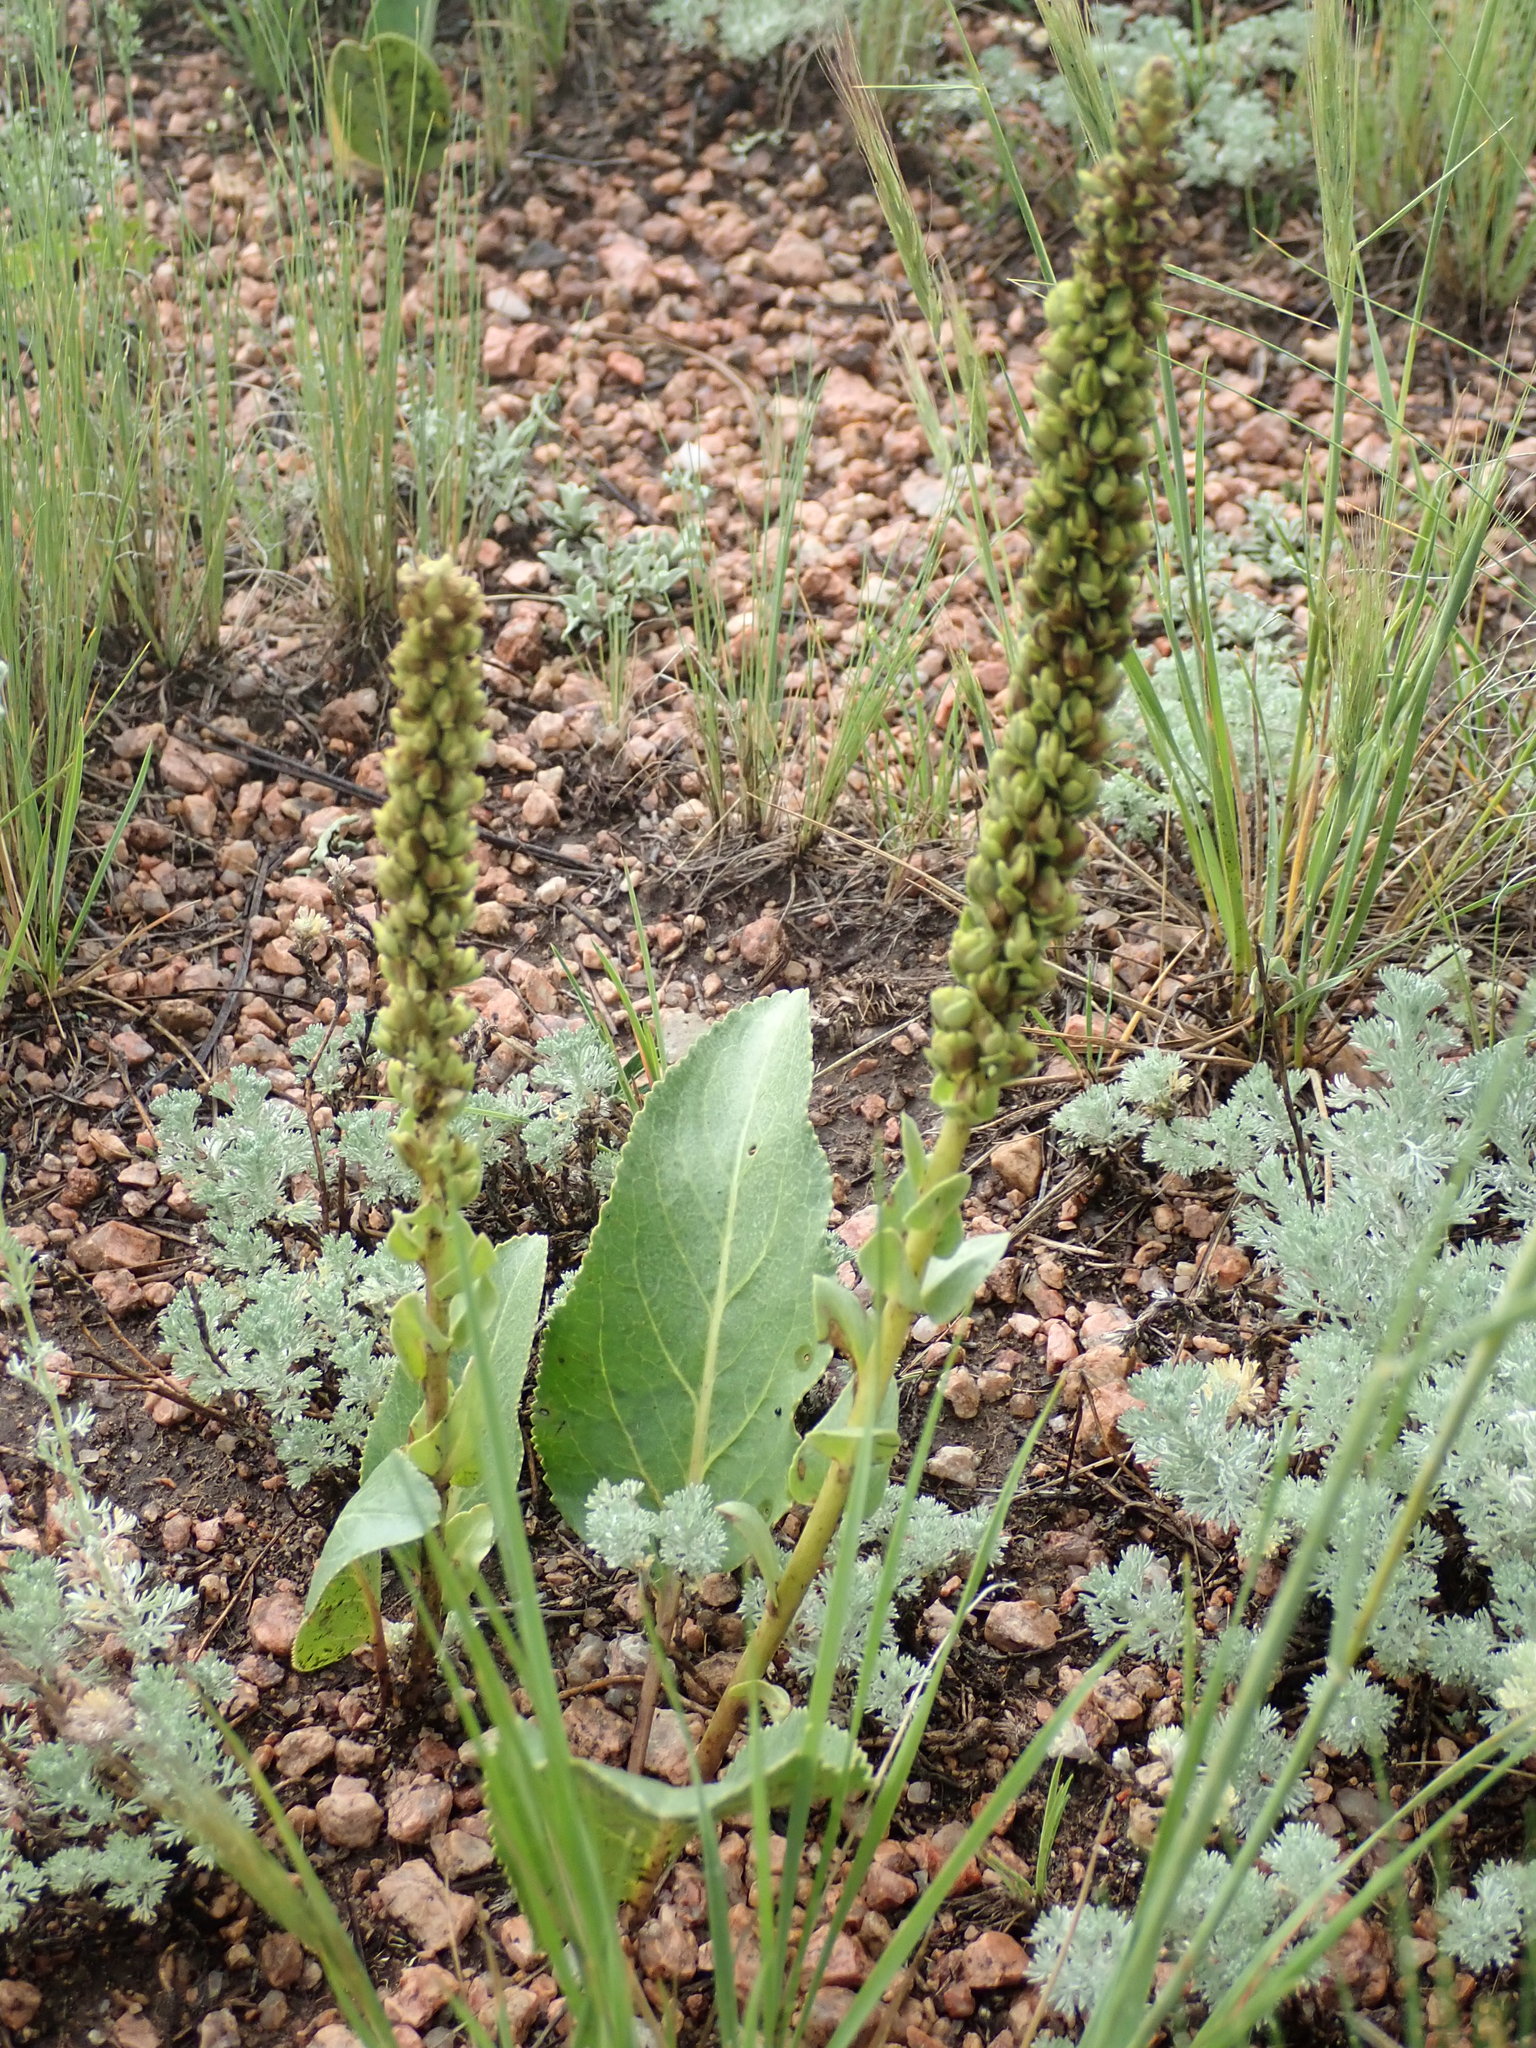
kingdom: Plantae
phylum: Tracheophyta
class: Magnoliopsida
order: Lamiales
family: Plantaginaceae
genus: Veronica
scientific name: Veronica plantaginea
